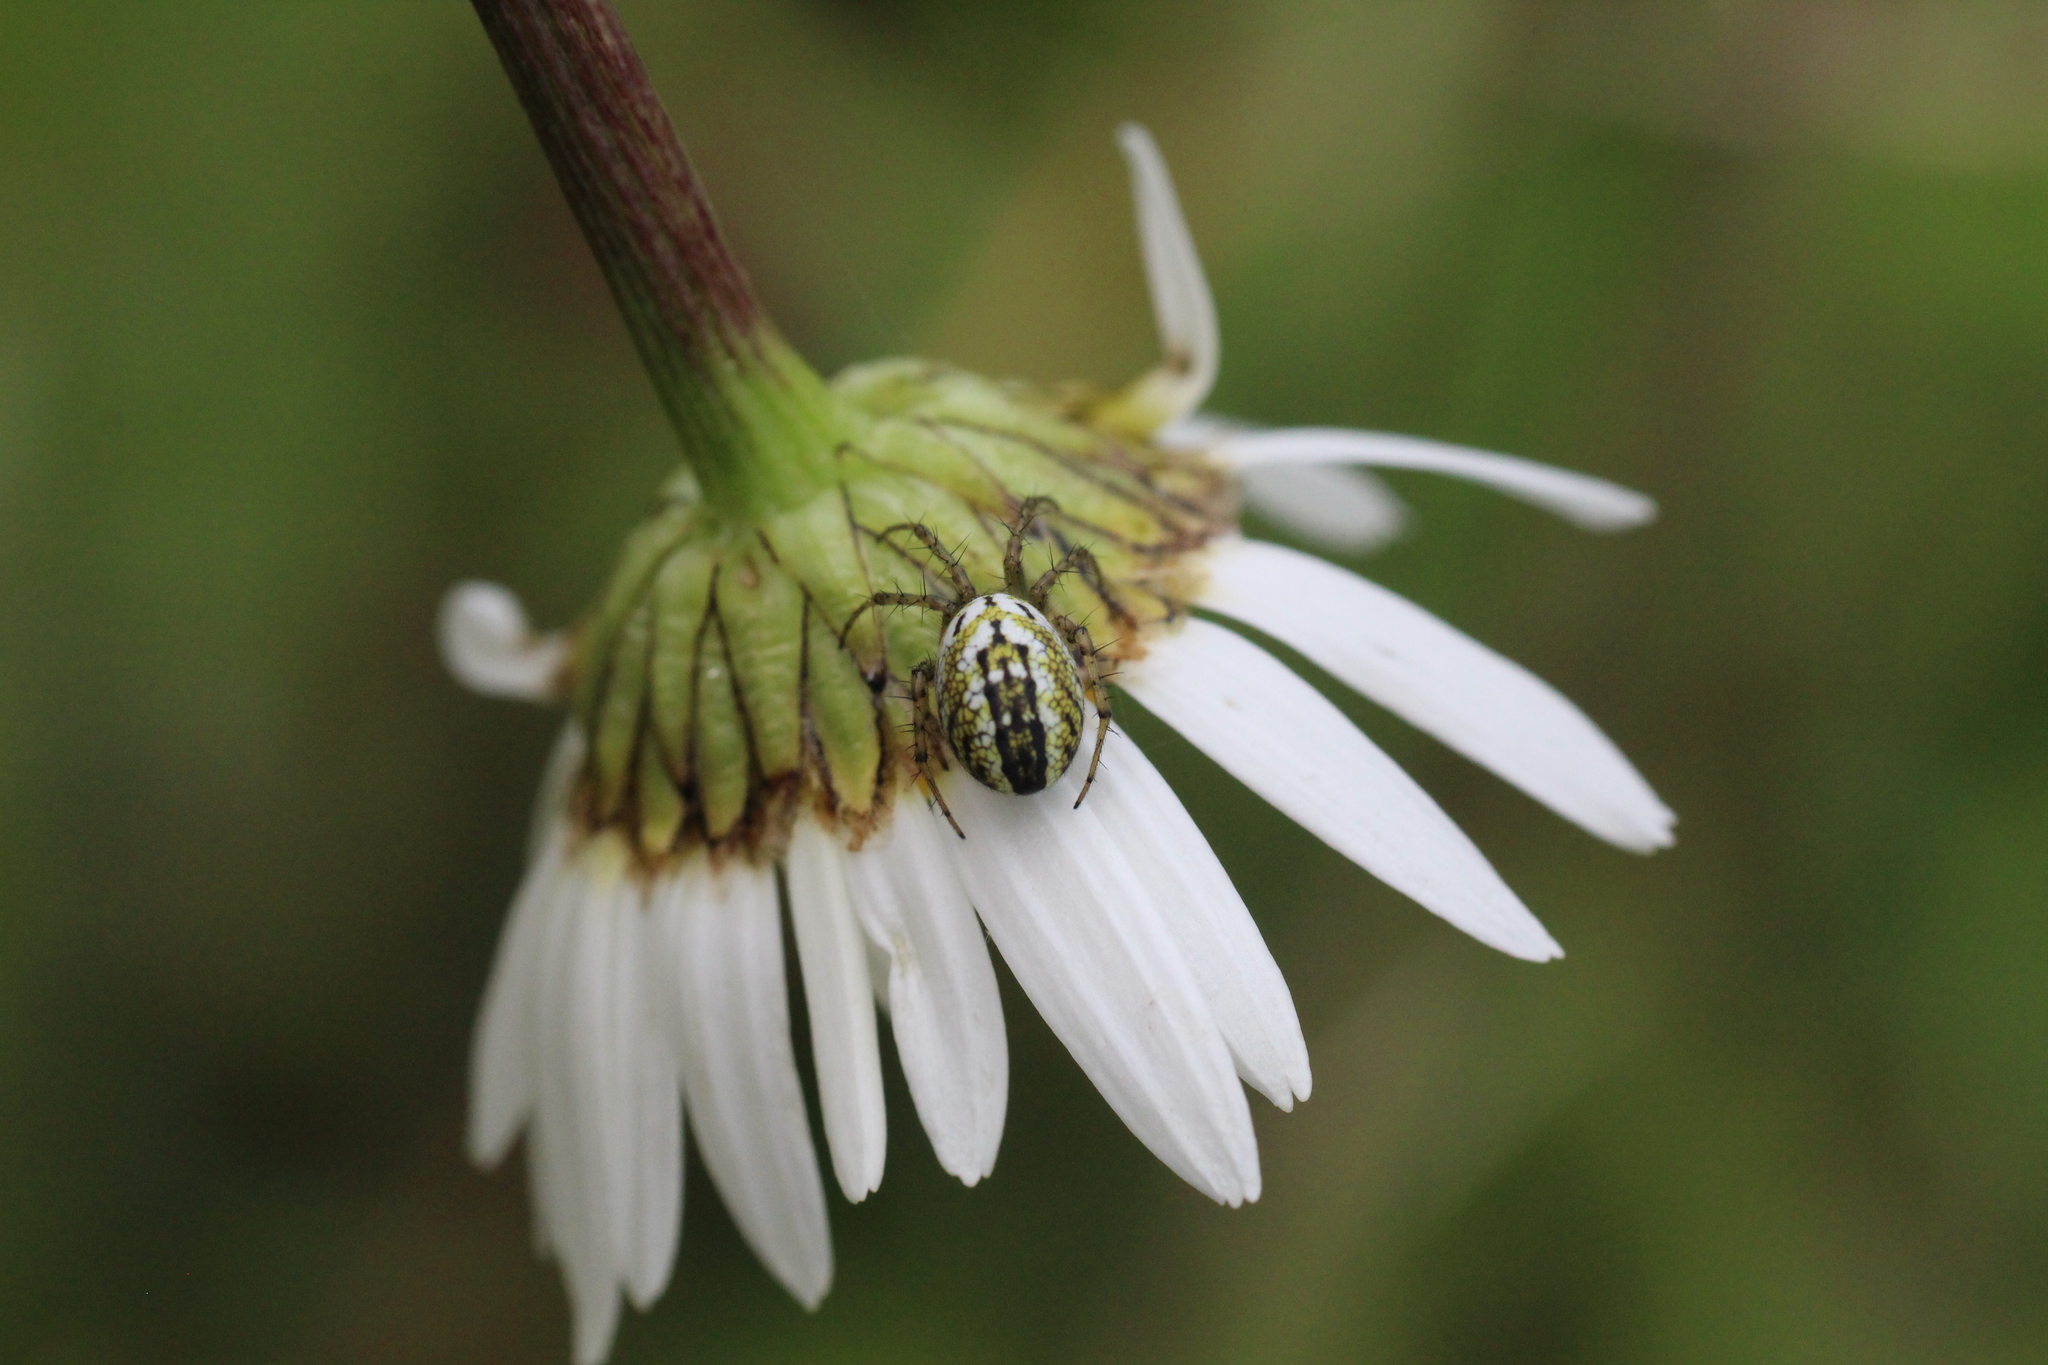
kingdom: Animalia
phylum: Arthropoda
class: Arachnida
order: Araneae
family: Araneidae
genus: Mangora
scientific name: Mangora acalypha
